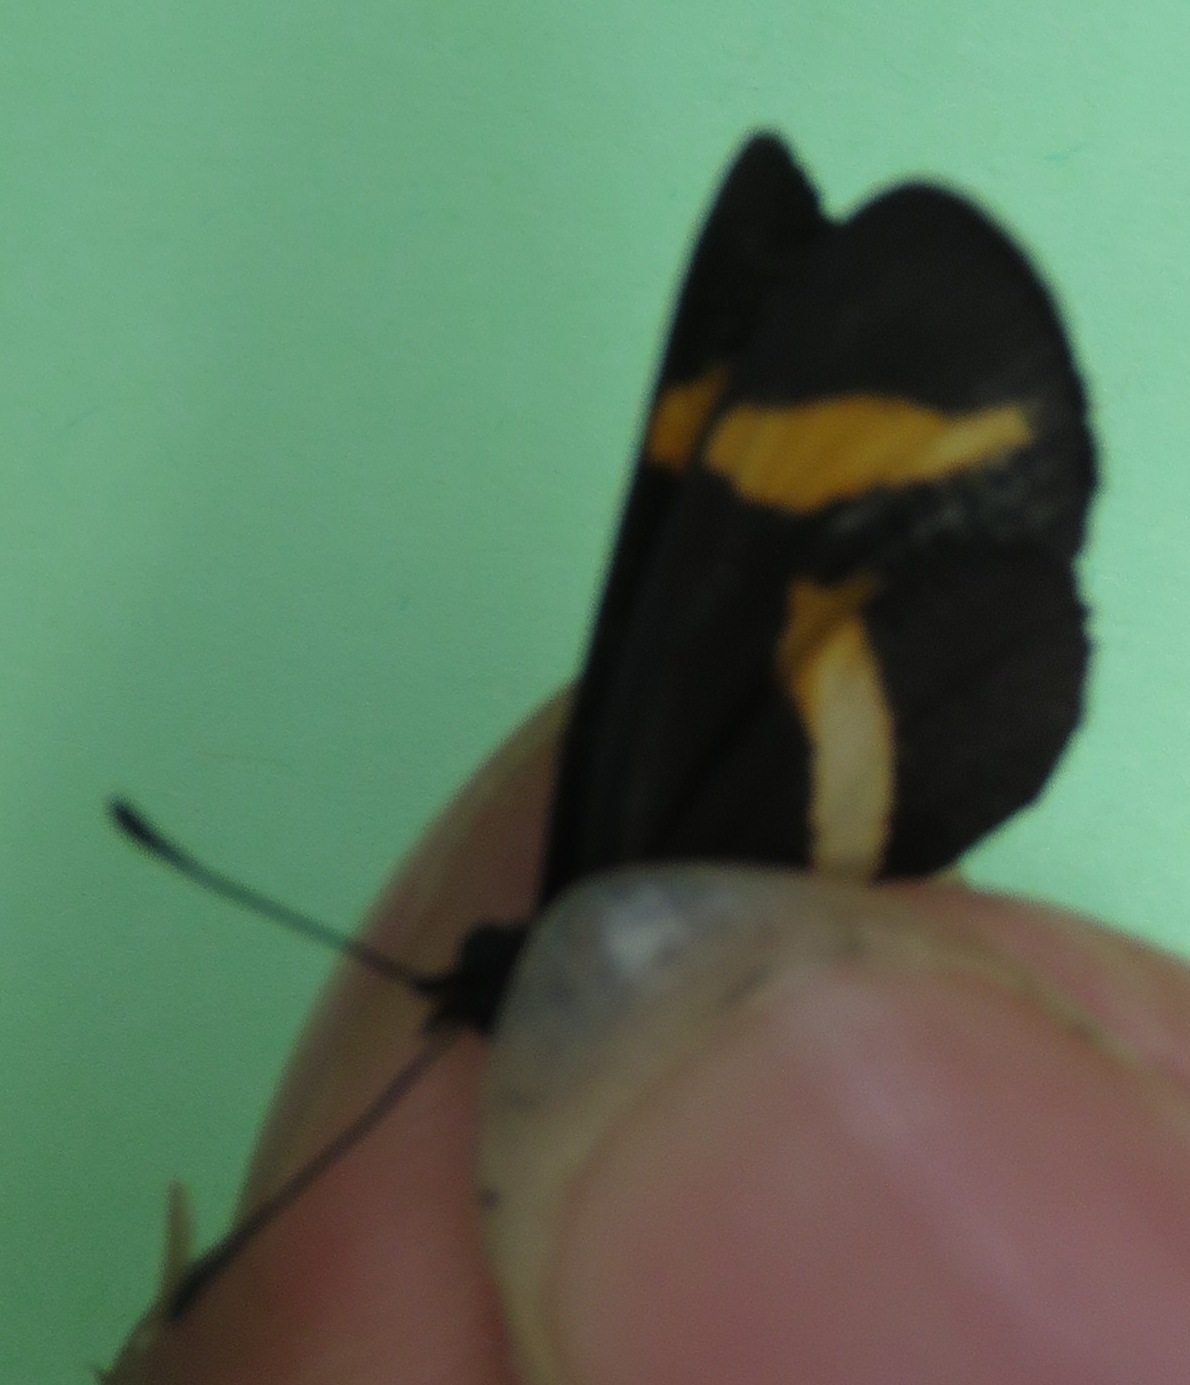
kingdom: Animalia
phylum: Arthropoda
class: Insecta
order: Lepidoptera
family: Nymphalidae
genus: Microtia
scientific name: Microtia elva
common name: Elf
